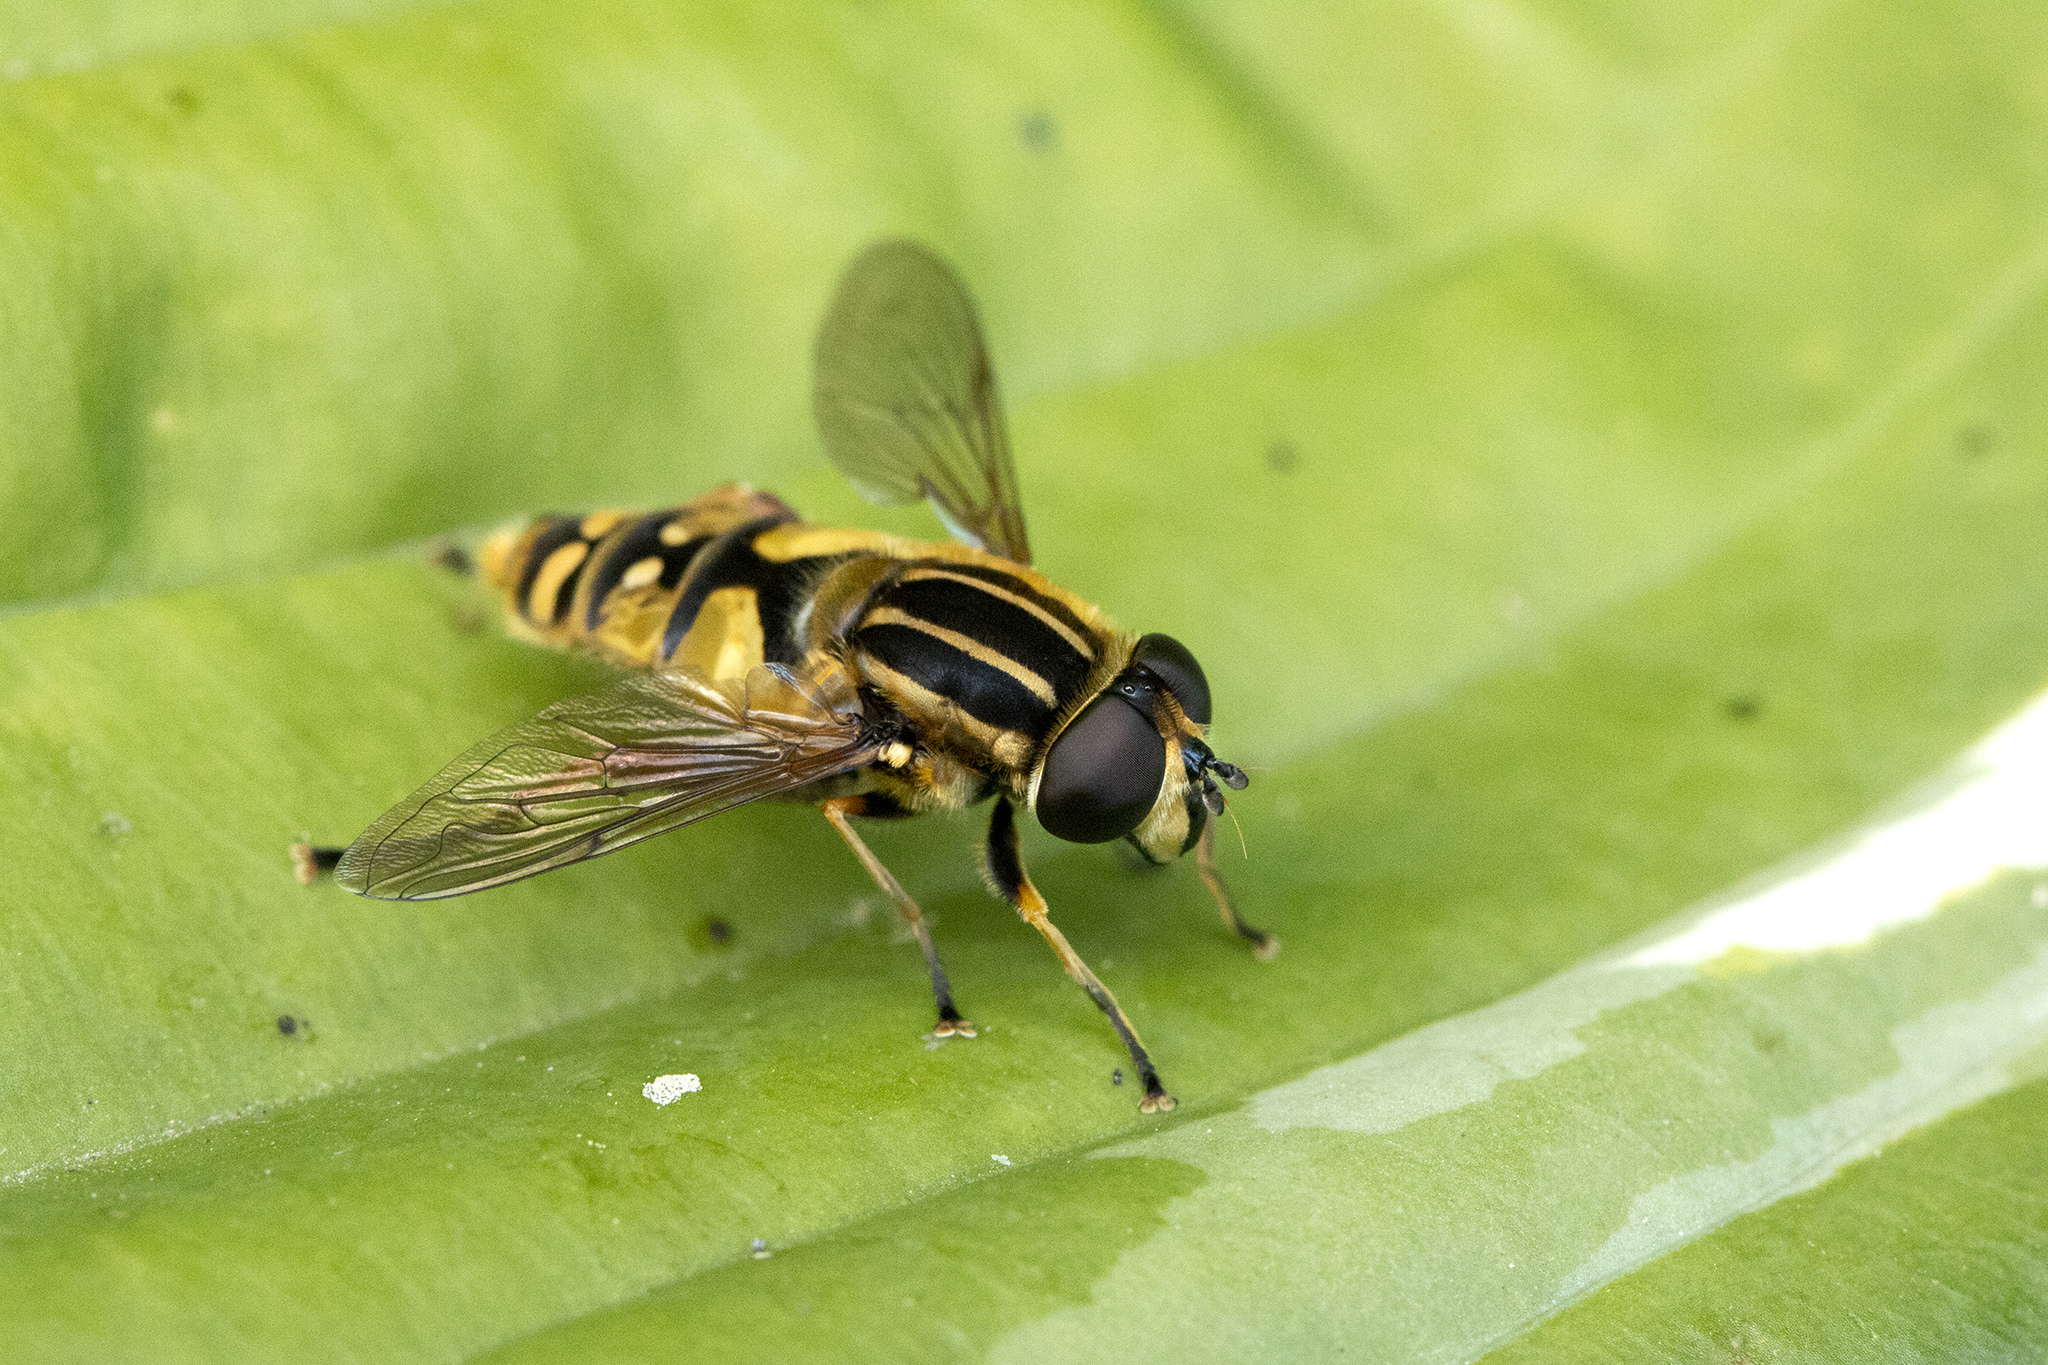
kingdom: Animalia
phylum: Arthropoda
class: Insecta
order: Diptera
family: Syrphidae
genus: Helophilus
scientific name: Helophilus pendulus
